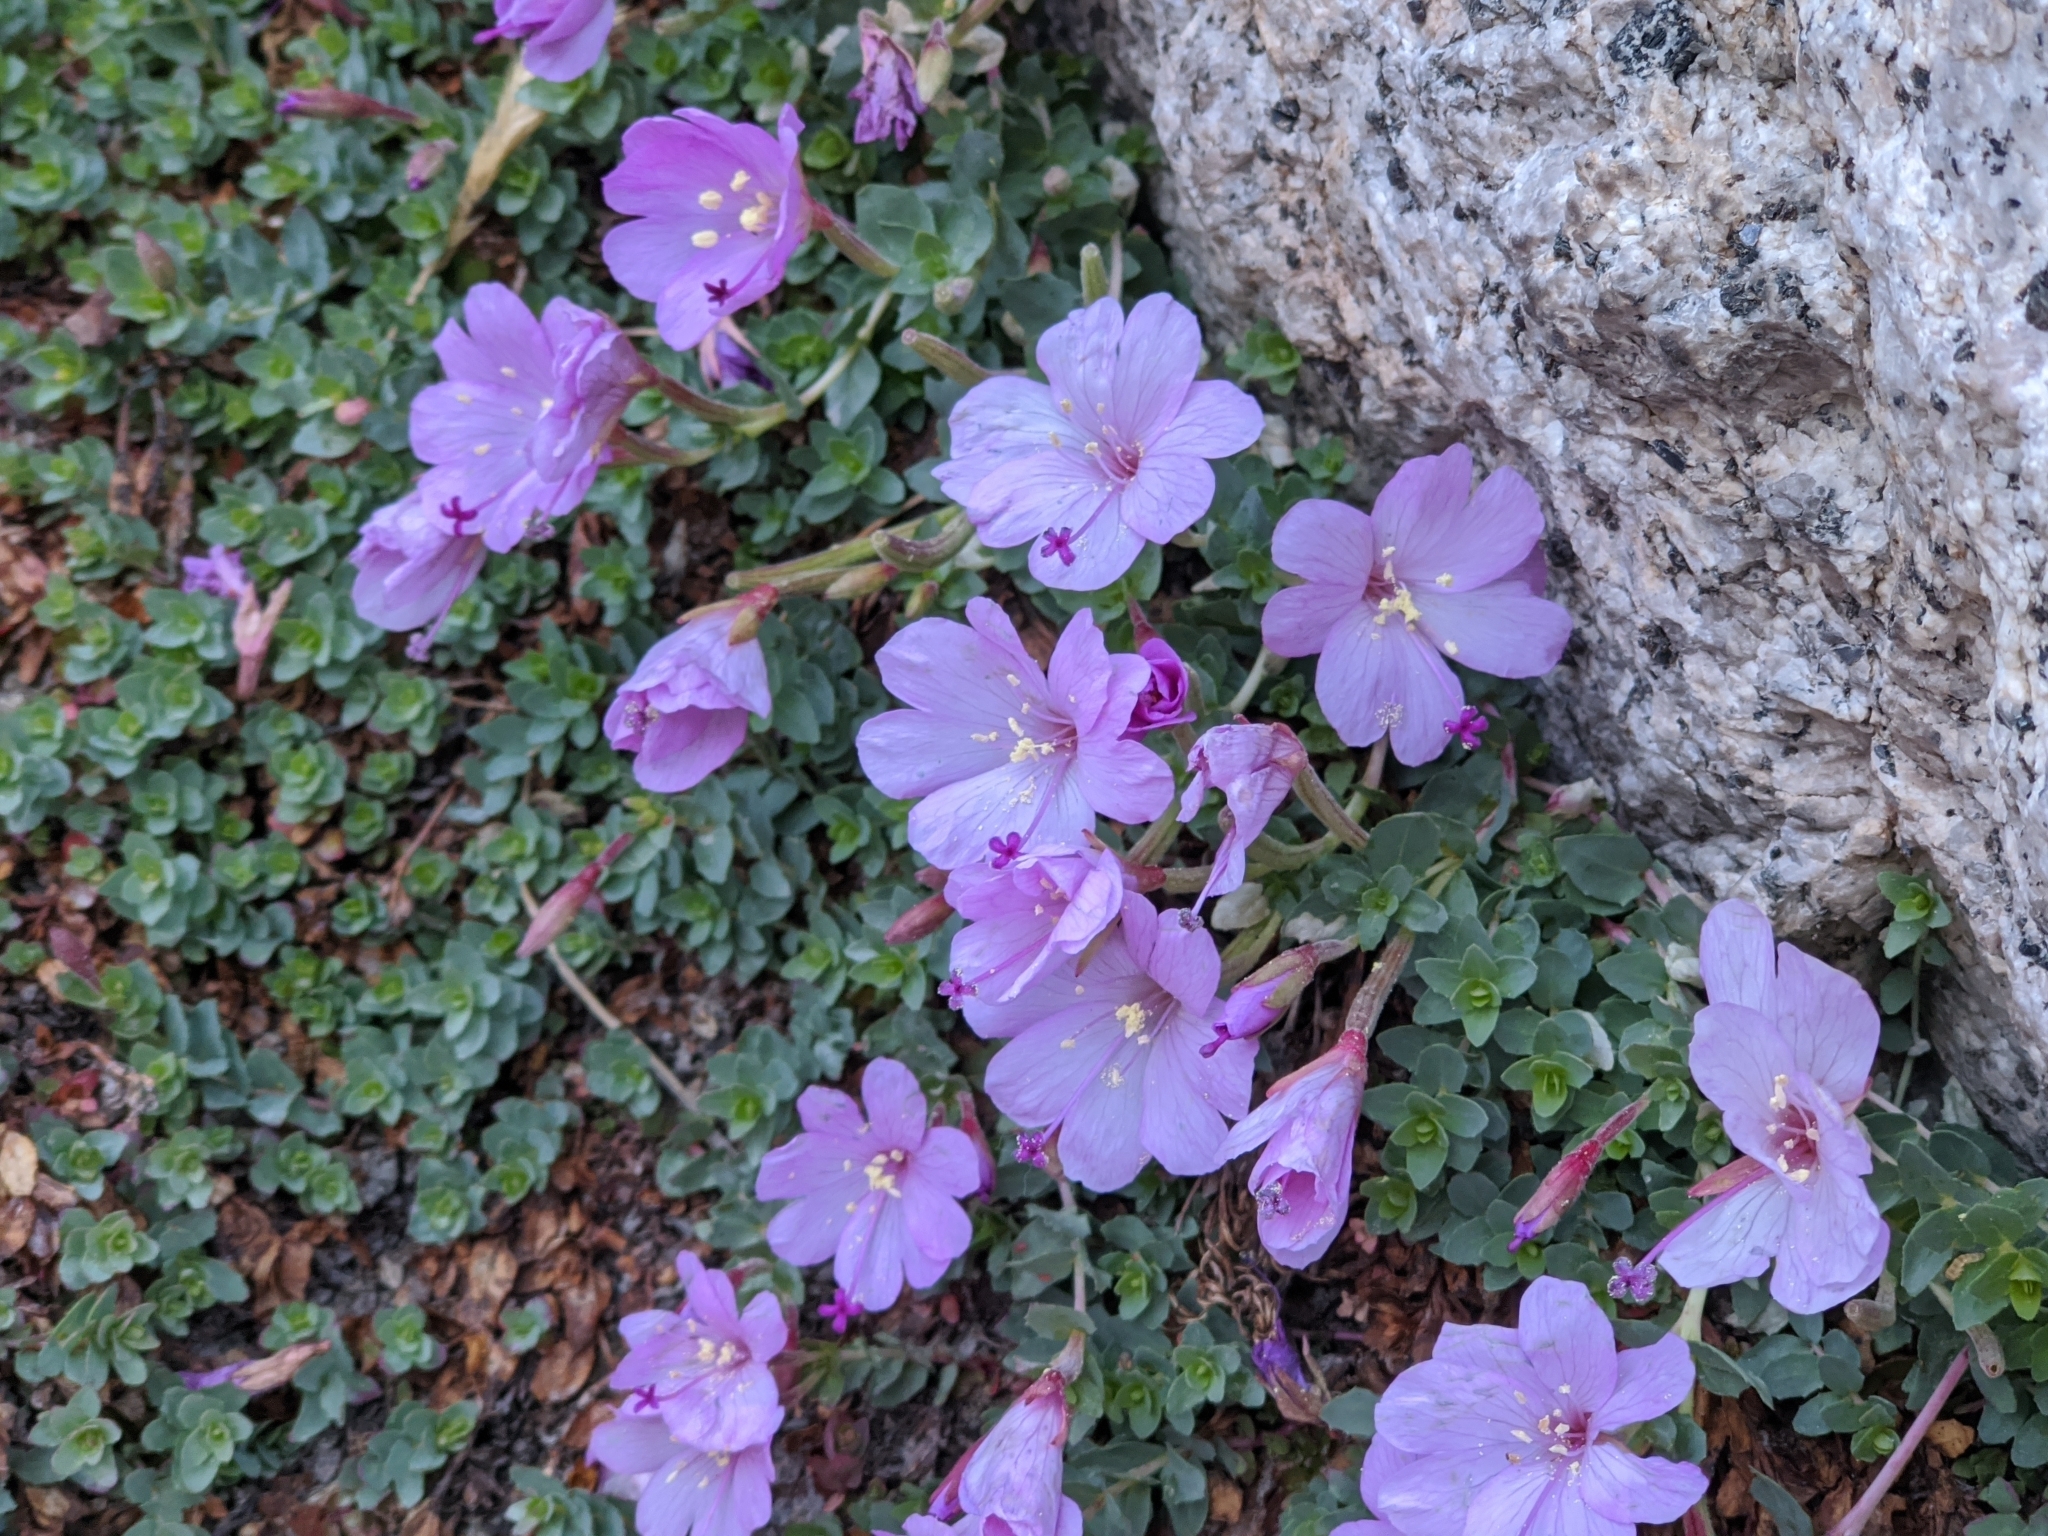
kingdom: Plantae
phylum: Tracheophyta
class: Magnoliopsida
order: Myrtales
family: Onagraceae
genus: Epilobium
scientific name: Epilobium obcordatum
